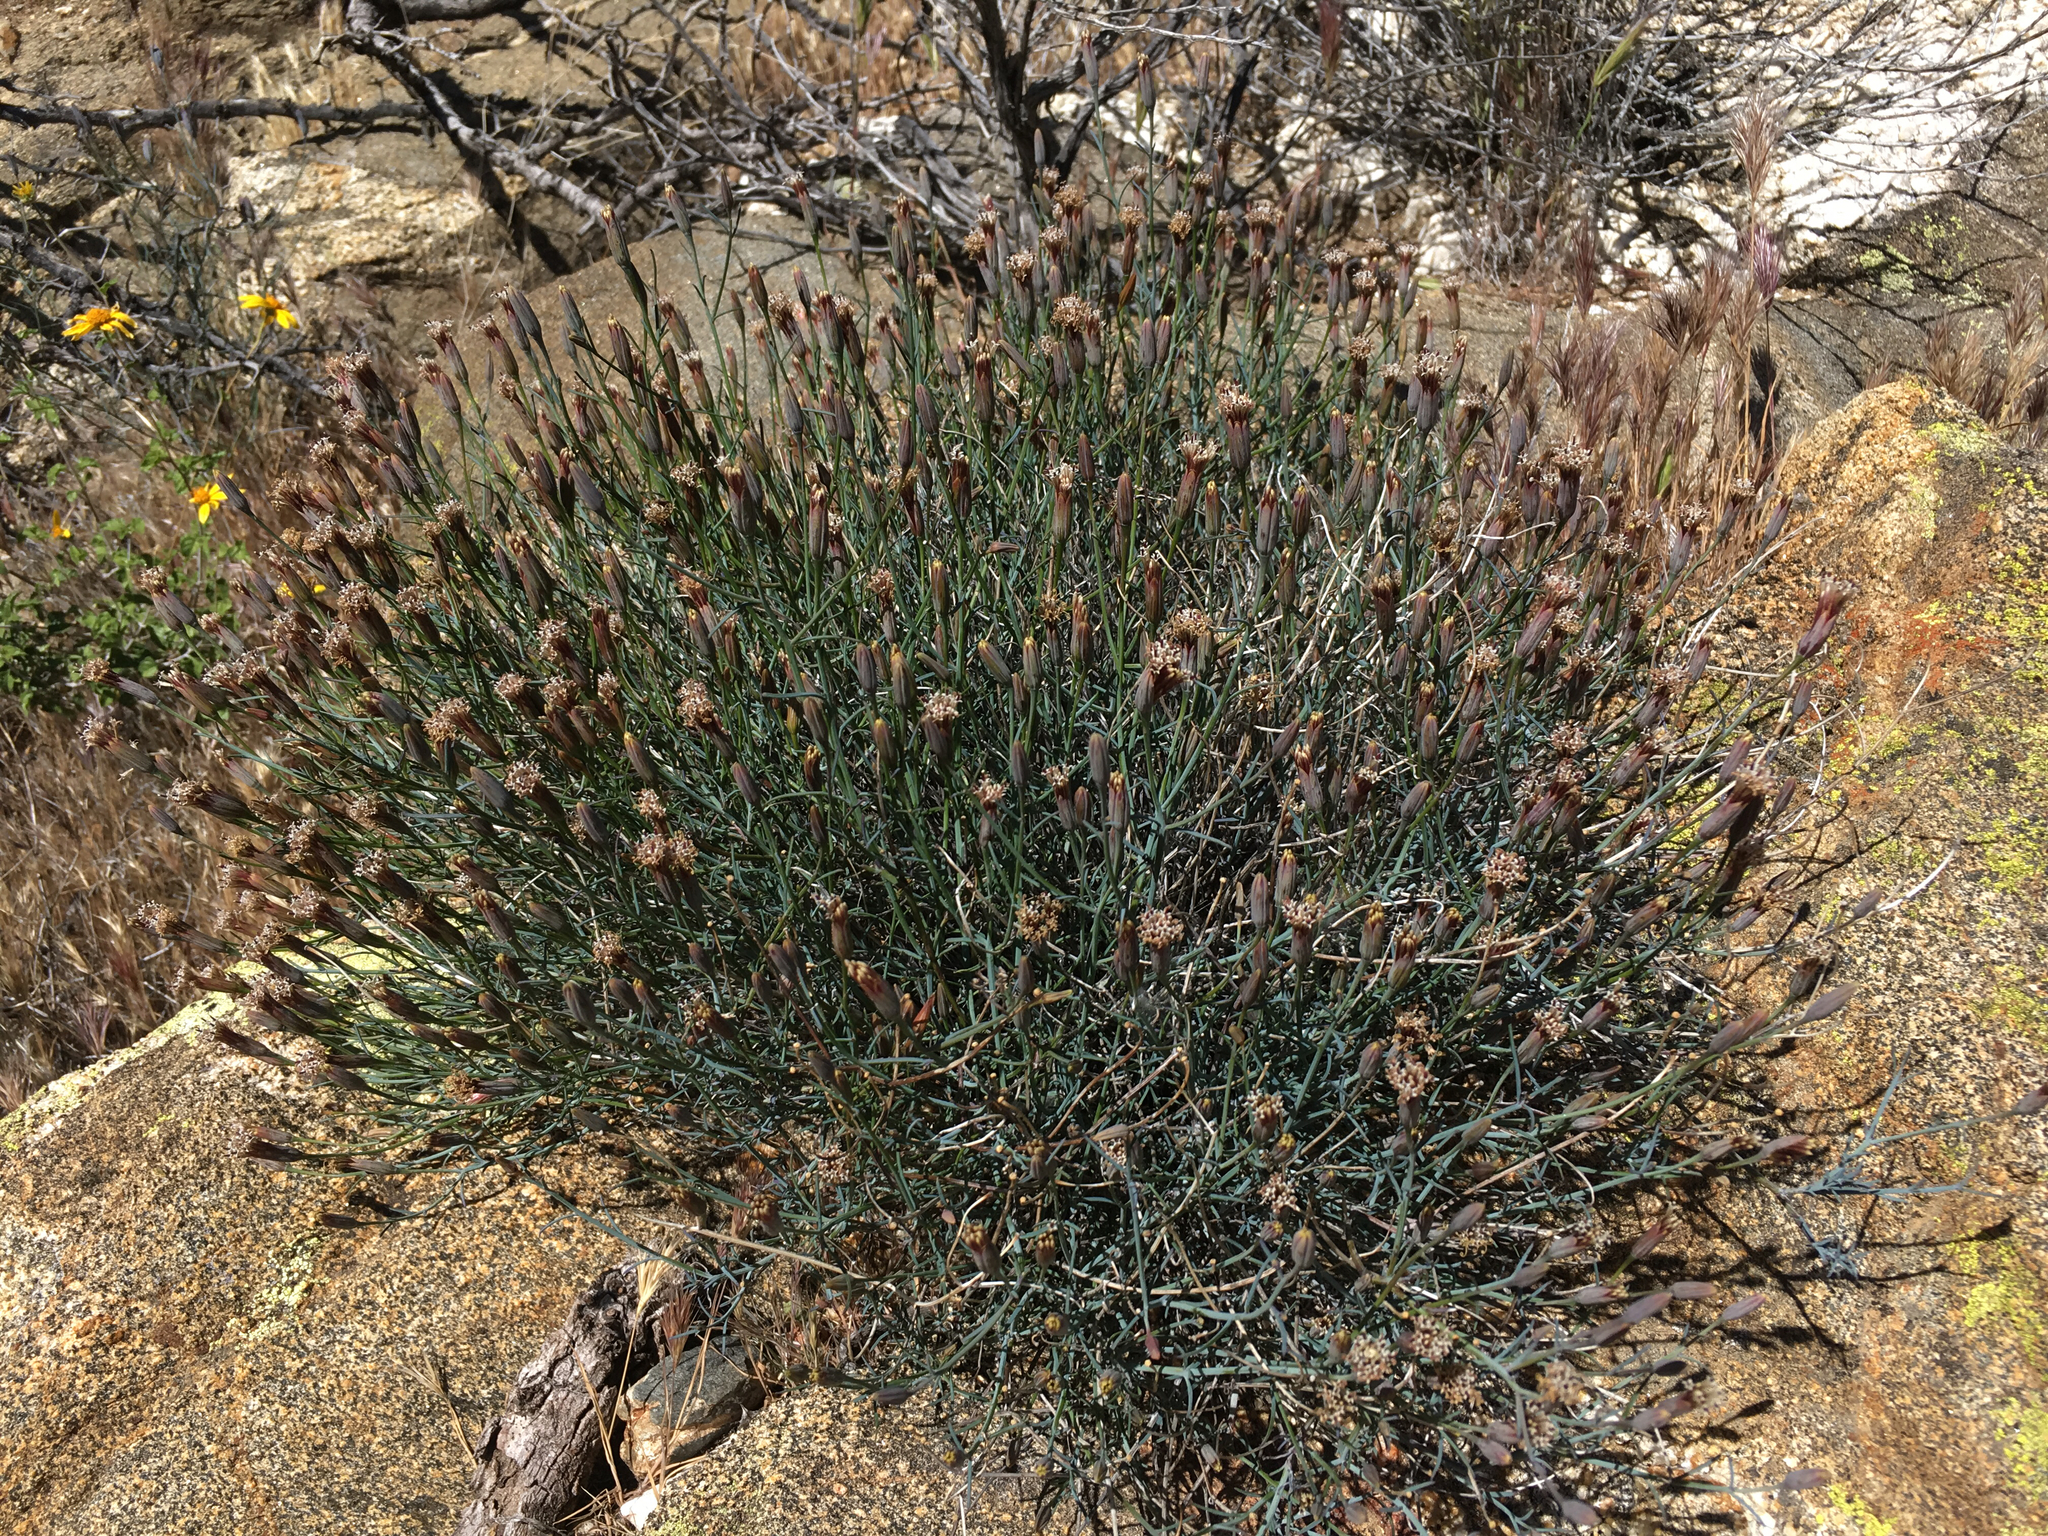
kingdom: Plantae
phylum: Tracheophyta
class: Magnoliopsida
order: Asterales
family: Asteraceae
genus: Porophyllum
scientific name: Porophyllum gracile
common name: Odora
